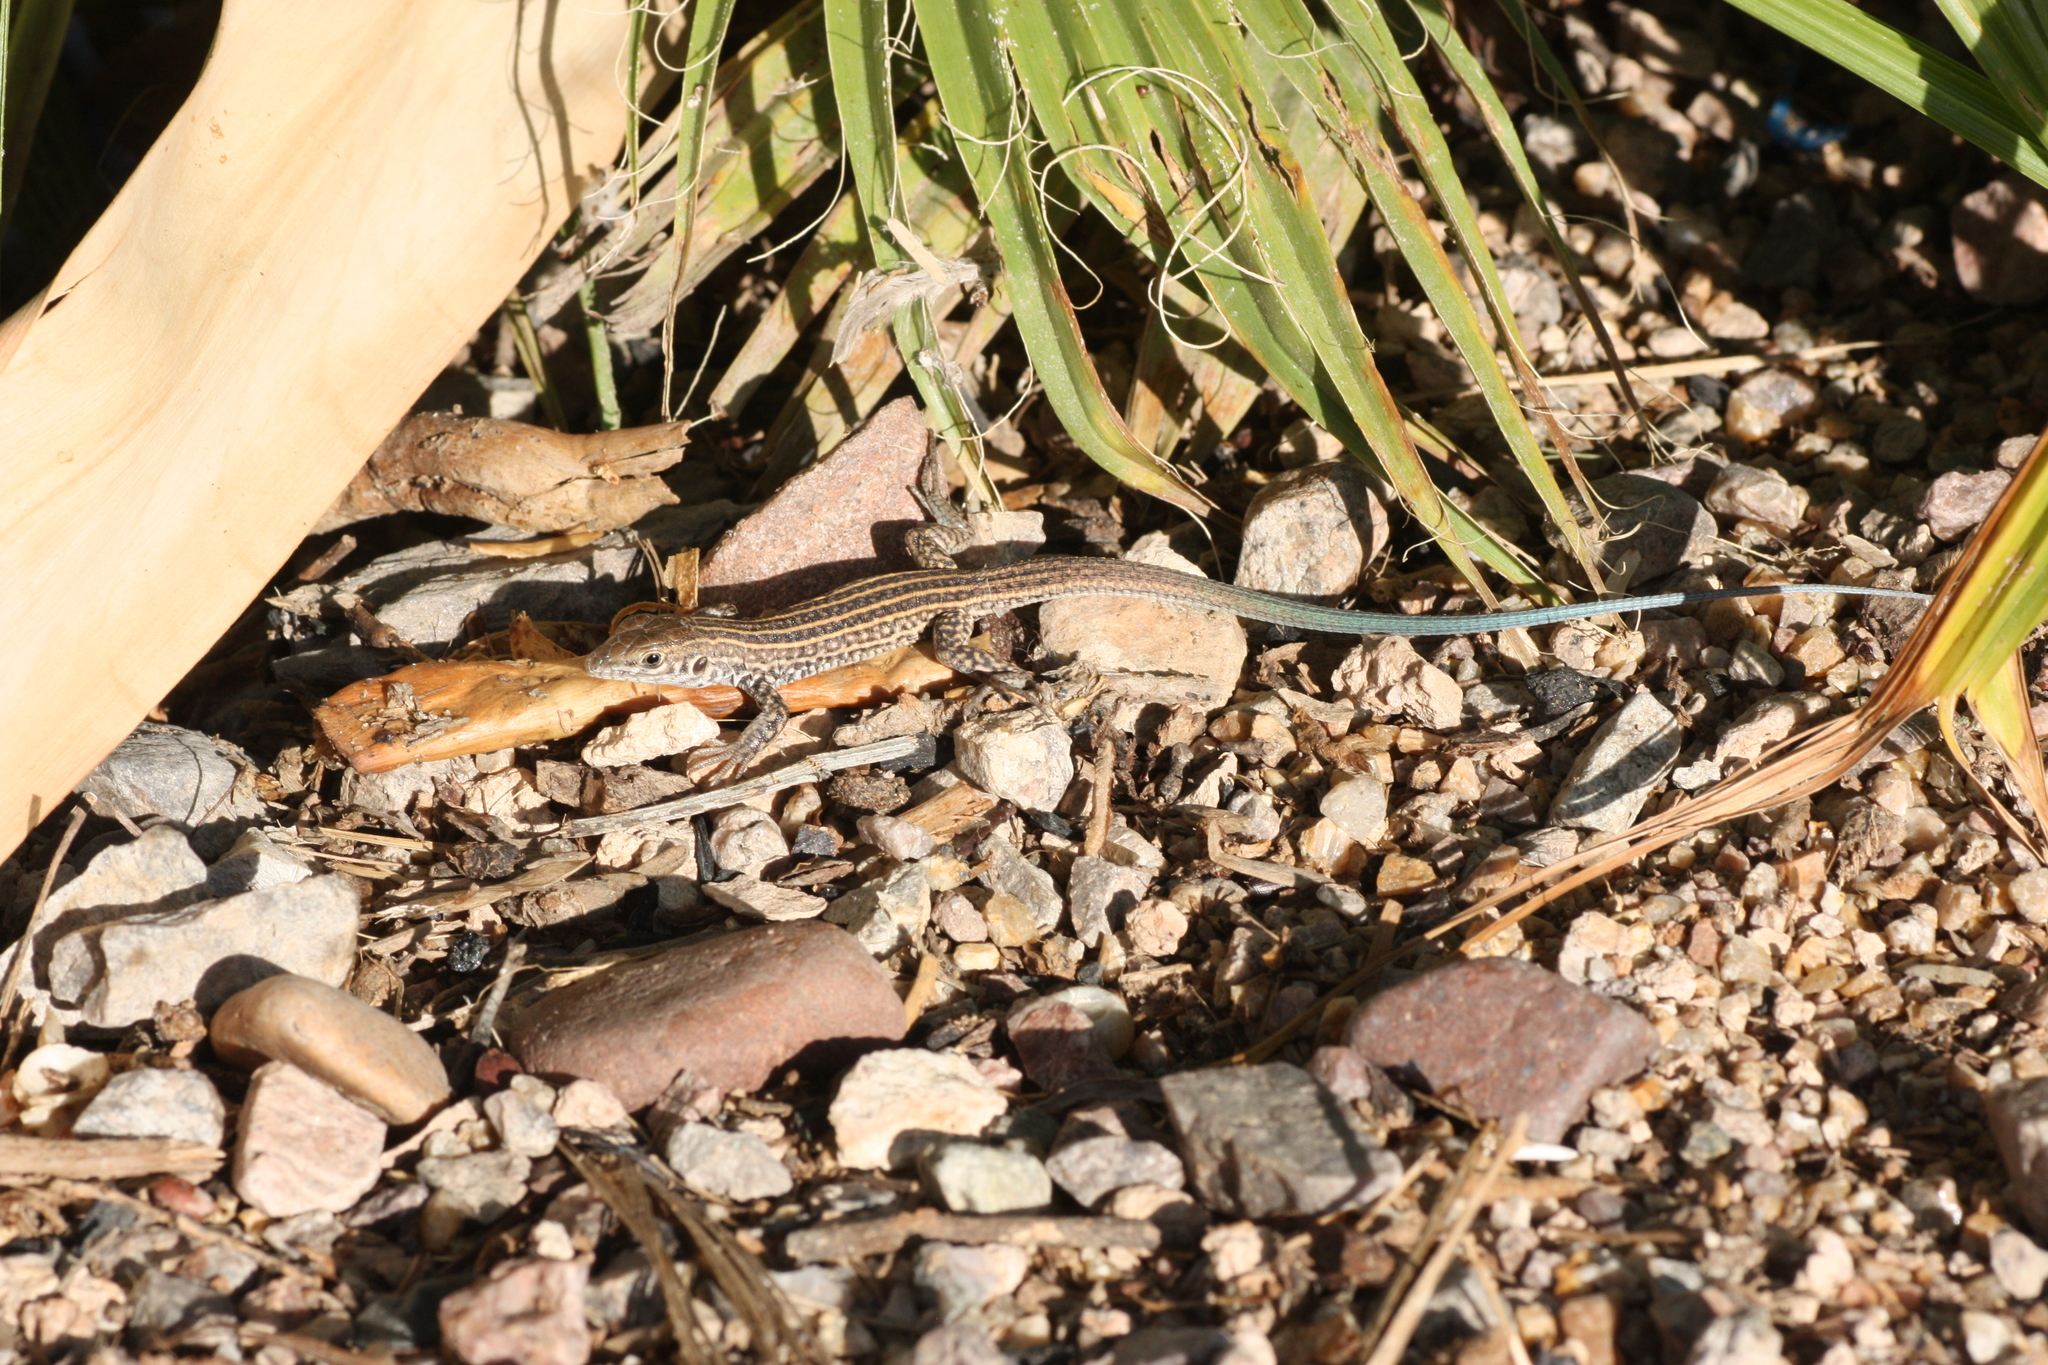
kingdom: Animalia
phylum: Chordata
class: Squamata
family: Teiidae
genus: Aspidoscelis
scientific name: Aspidoscelis tigris
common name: Tiger whiptail
